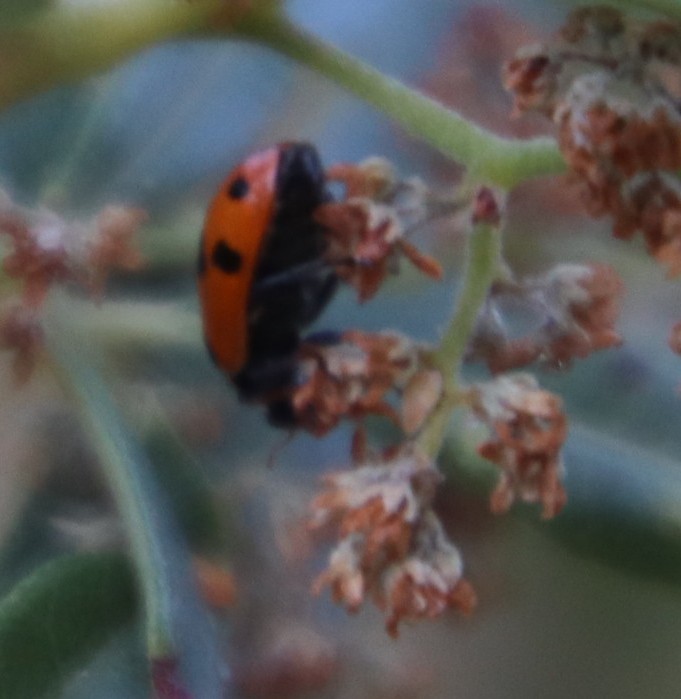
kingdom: Animalia
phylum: Arthropoda
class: Insecta
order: Coleoptera
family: Coccinellidae
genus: Hippodamia
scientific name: Hippodamia variegata
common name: Ladybird beetle
